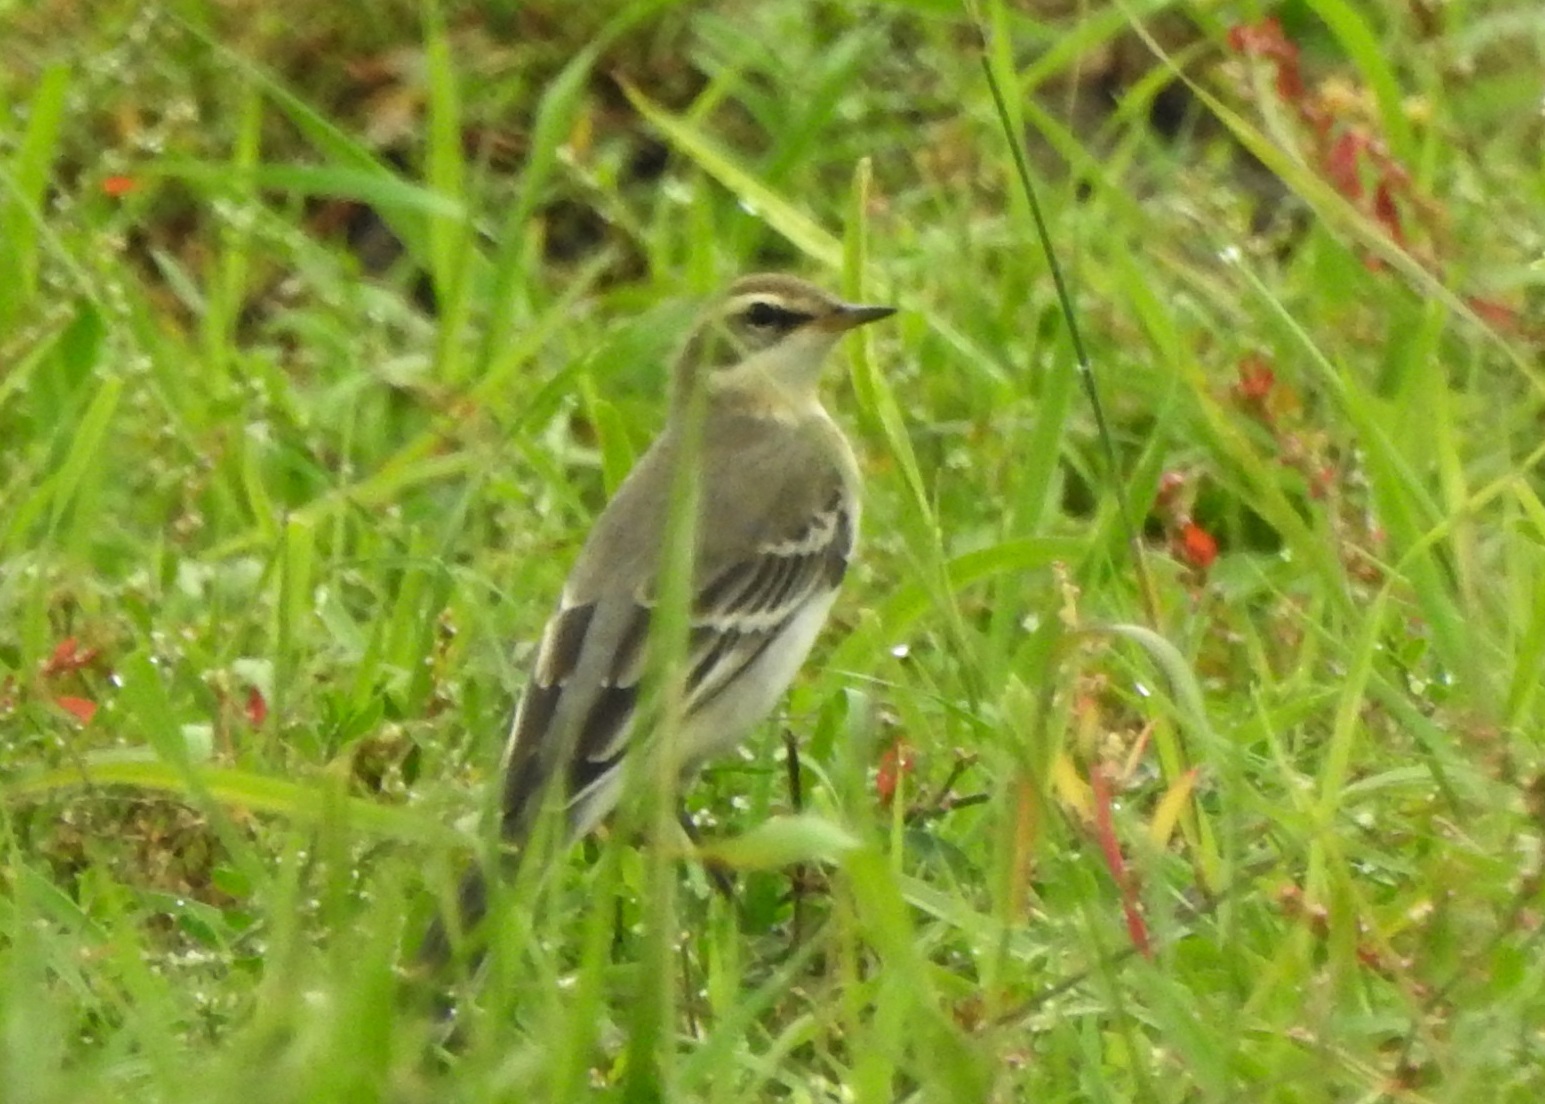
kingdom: Animalia
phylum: Chordata
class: Aves
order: Passeriformes
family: Motacillidae
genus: Motacilla
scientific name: Motacilla tschutschensis
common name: Eastern yellow wagtail
